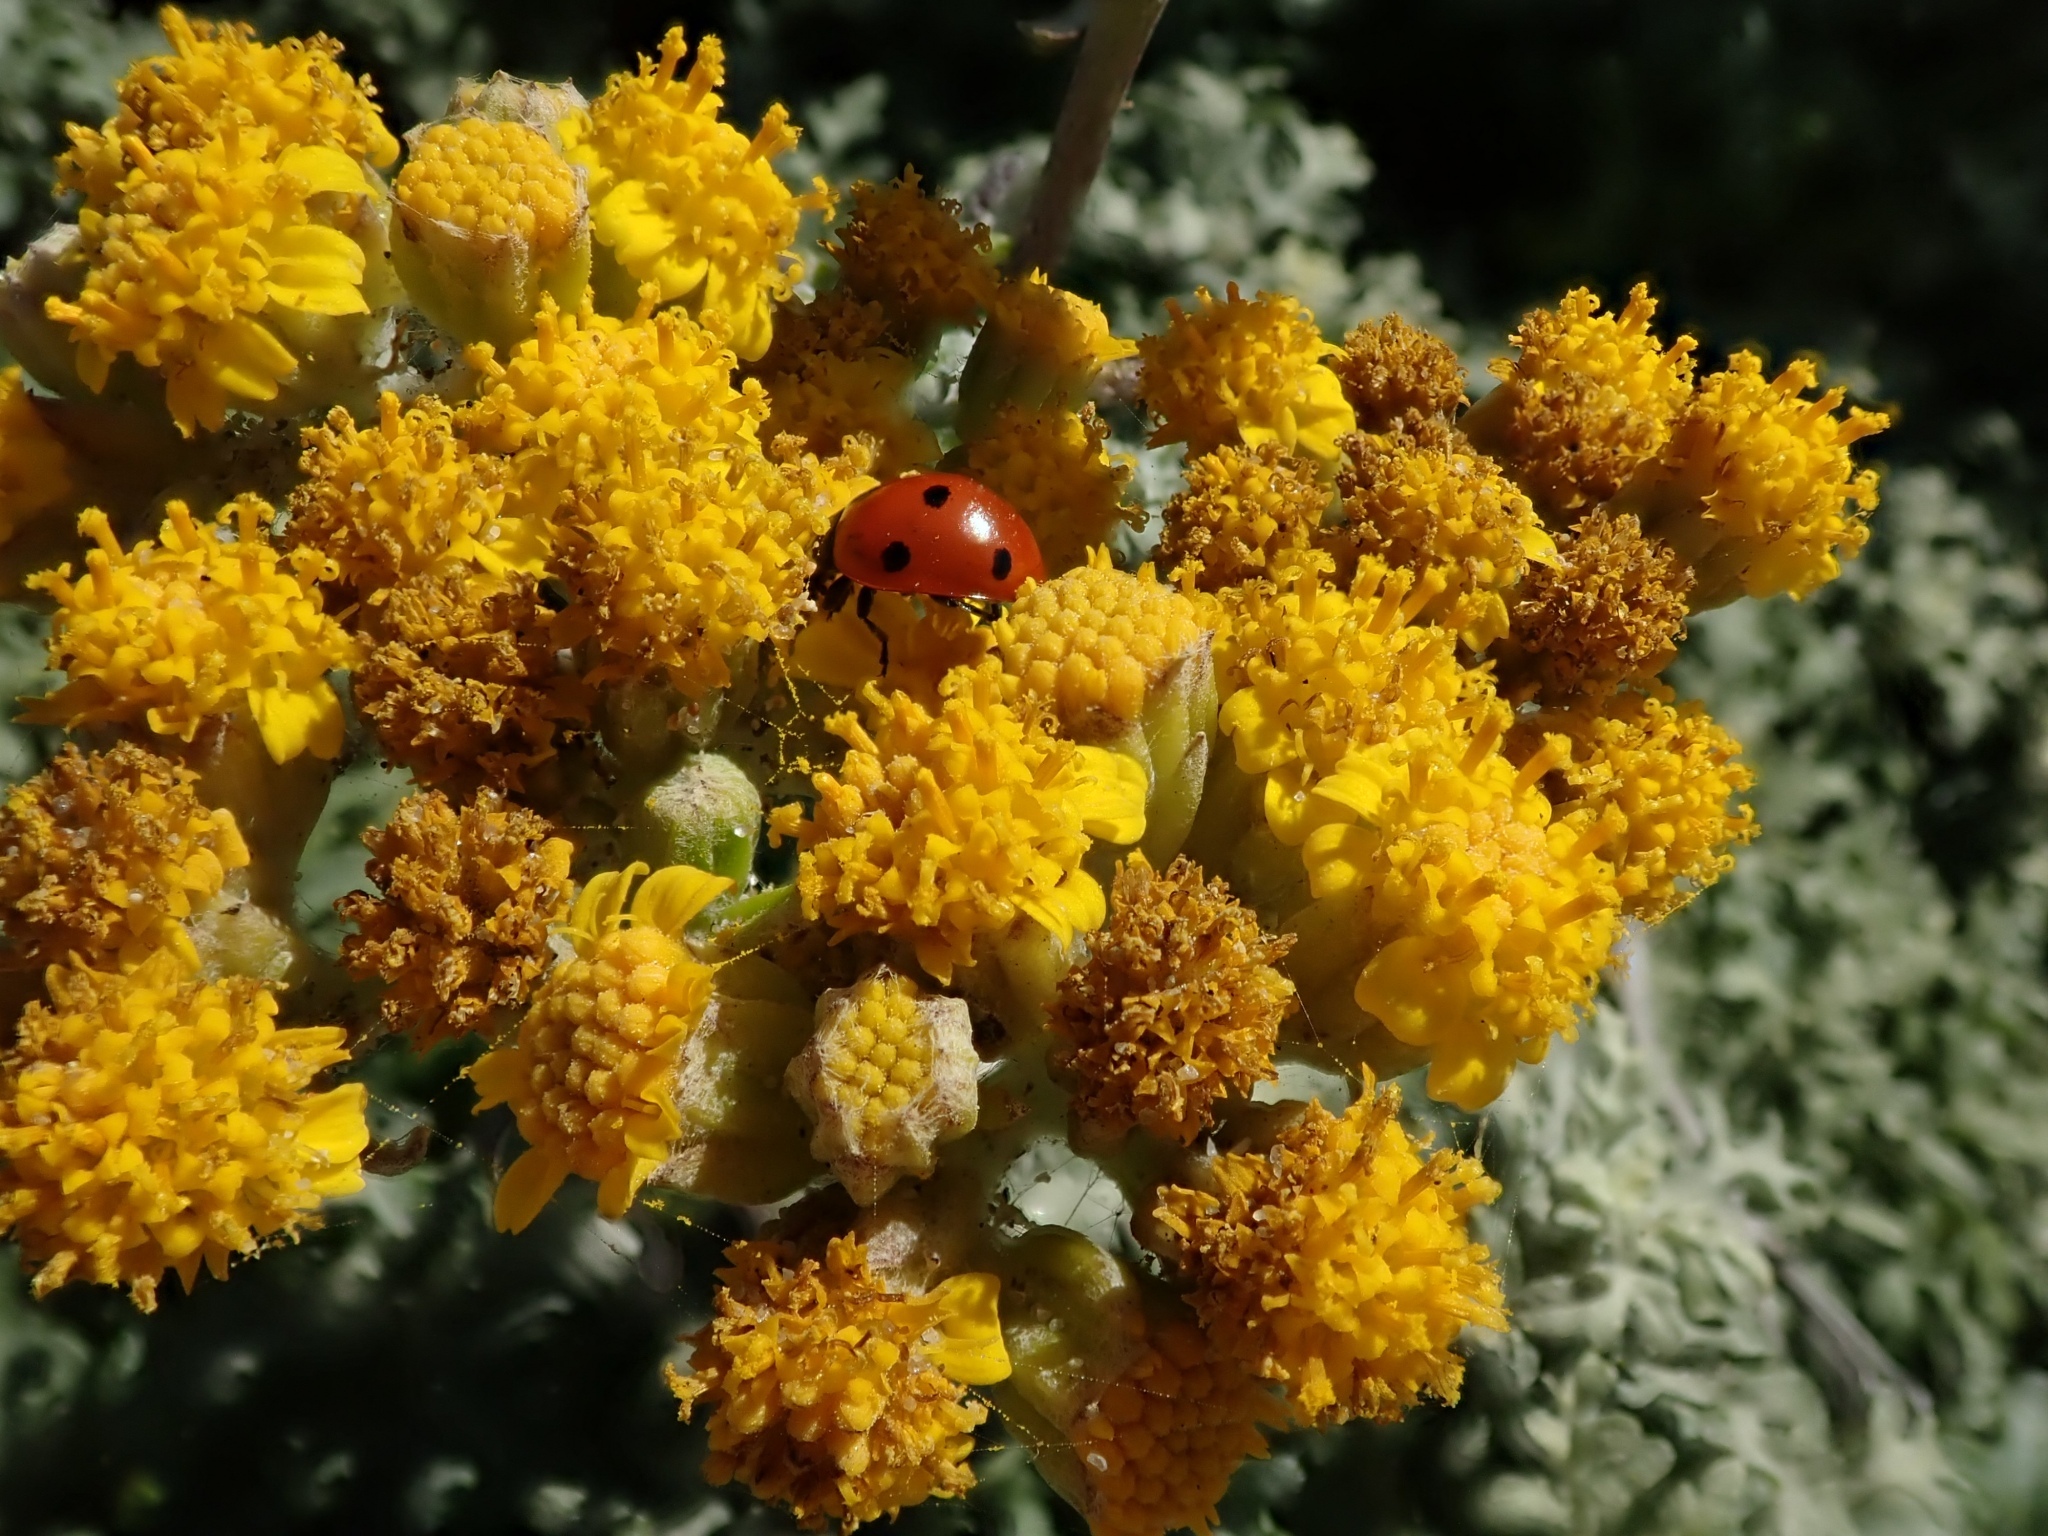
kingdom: Plantae
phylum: Tracheophyta
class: Magnoliopsida
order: Asterales
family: Asteraceae
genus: Eriophyllum
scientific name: Eriophyllum staechadifolium
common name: Lizardtail
